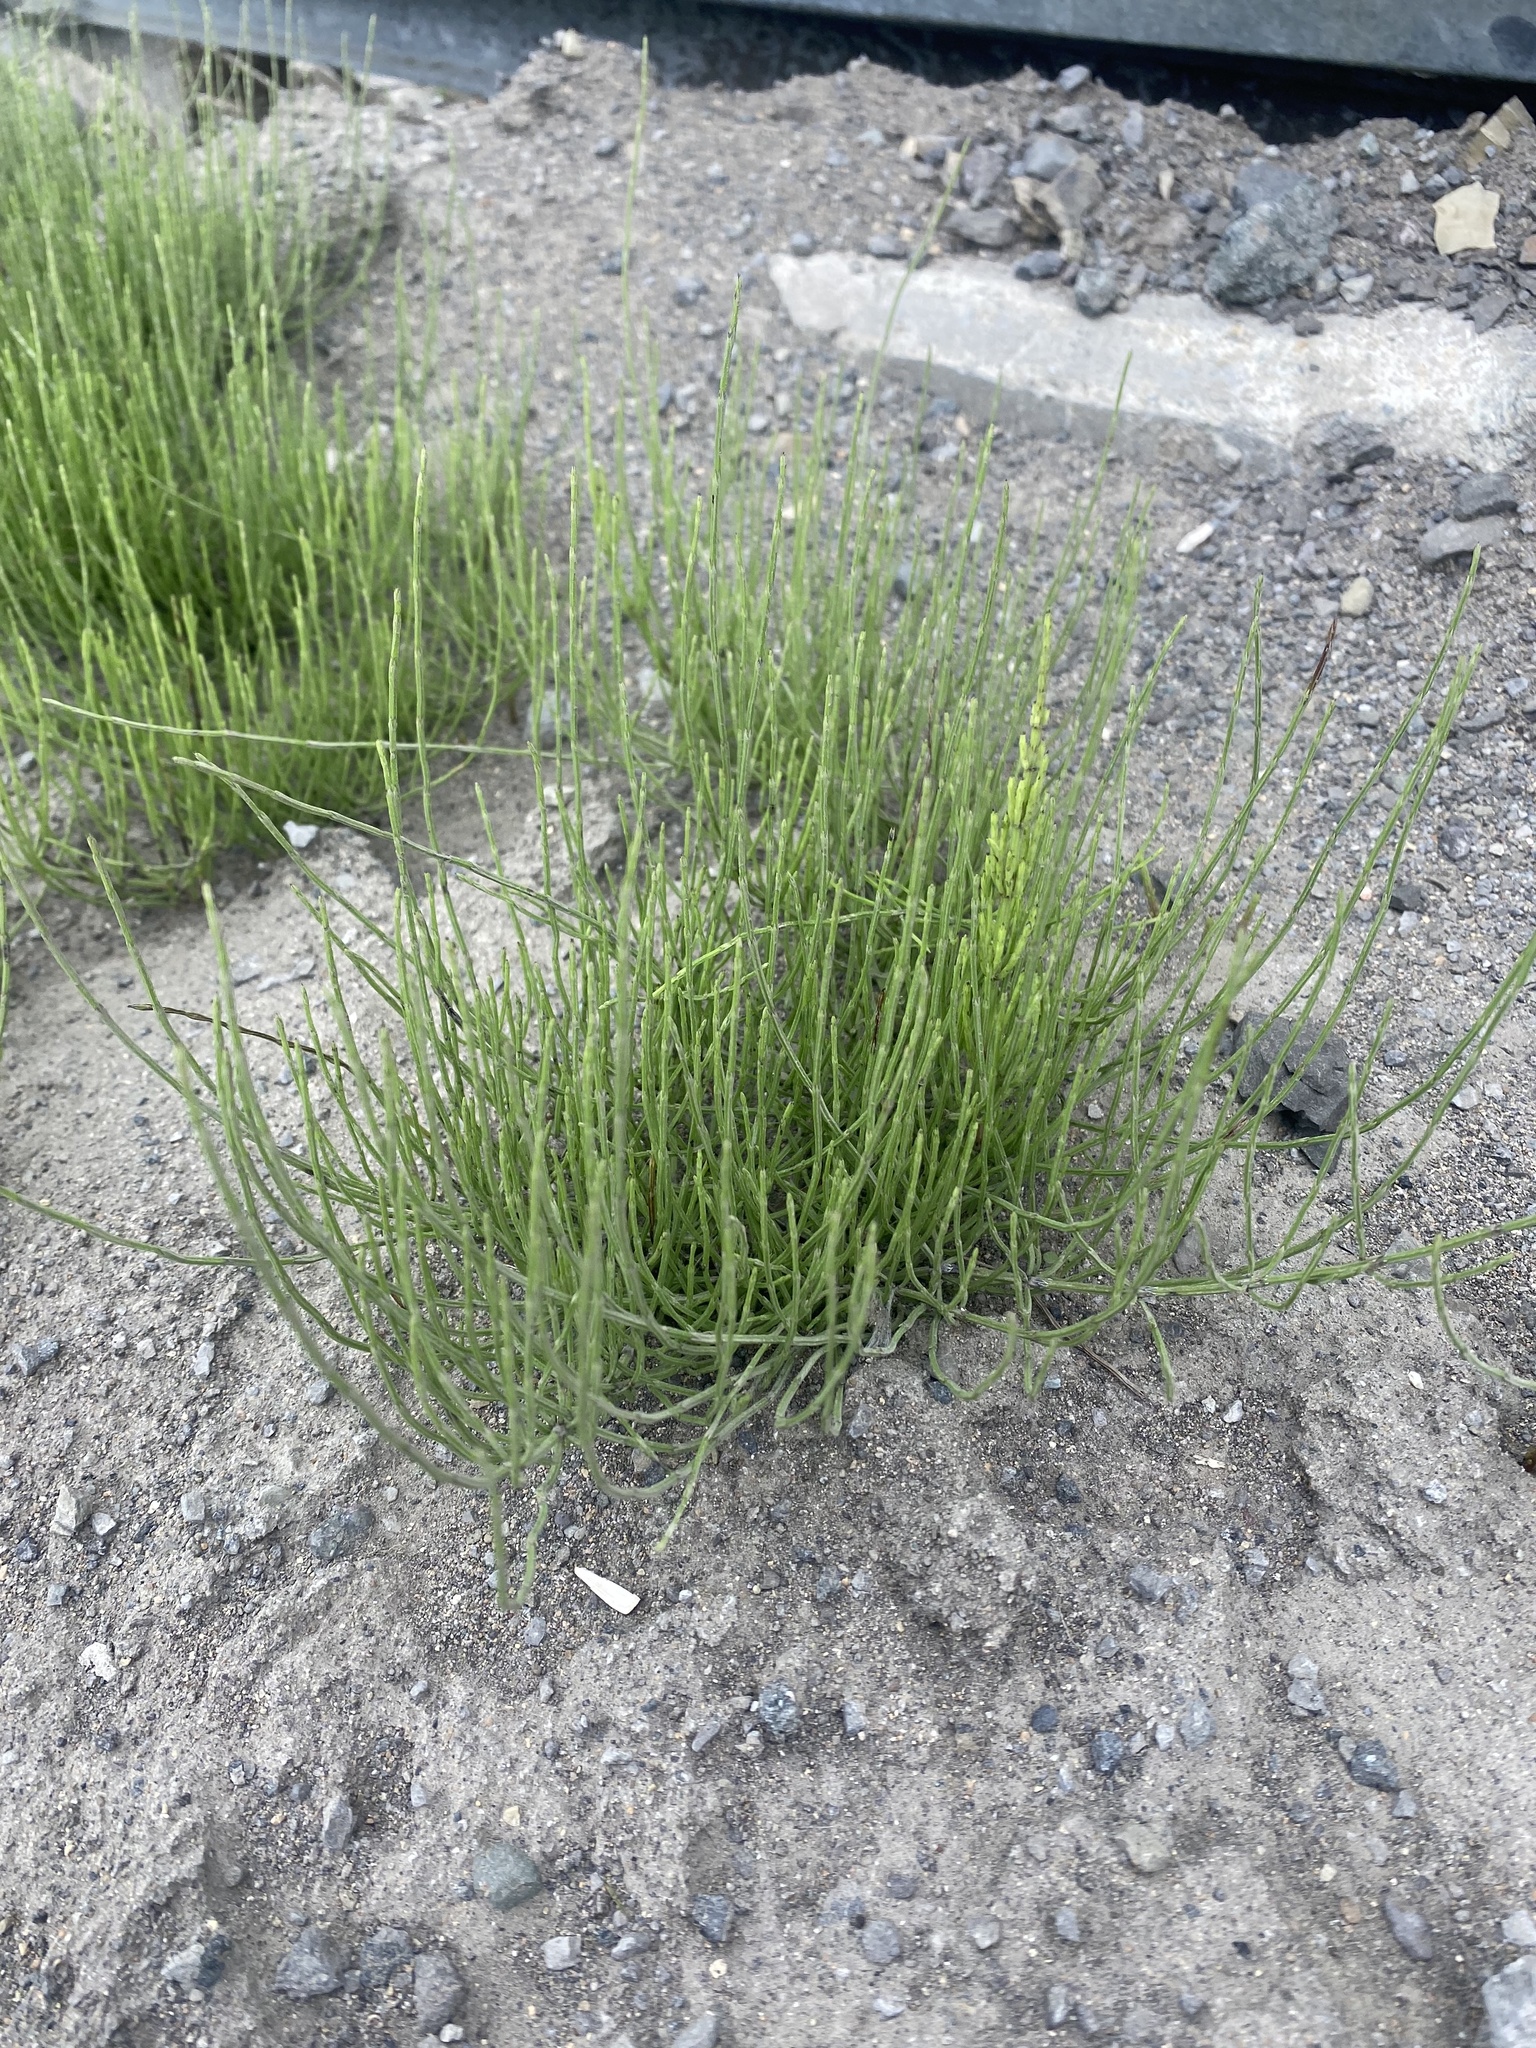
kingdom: Plantae
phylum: Tracheophyta
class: Polypodiopsida
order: Equisetales
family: Equisetaceae
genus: Equisetum
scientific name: Equisetum arvense
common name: Field horsetail
